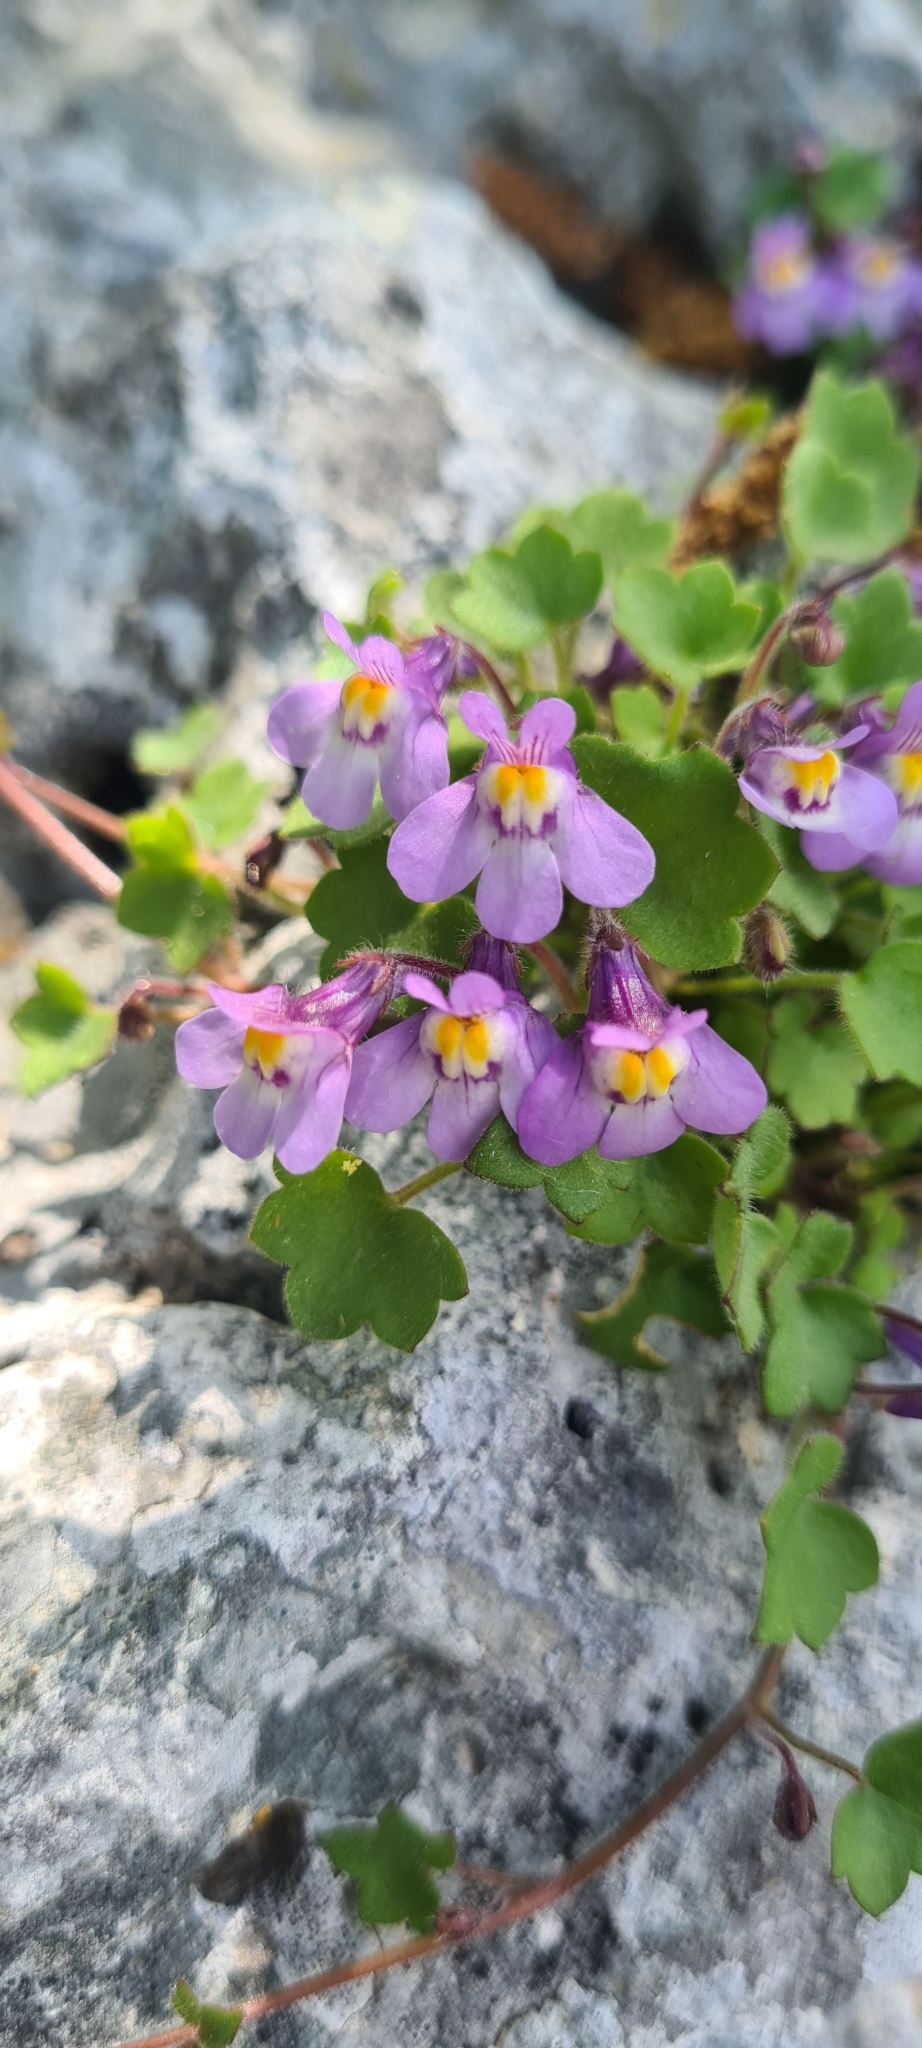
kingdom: Plantae
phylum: Tracheophyta
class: Magnoliopsida
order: Lamiales
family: Plantaginaceae
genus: Cymbalaria
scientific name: Cymbalaria muralis
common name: Ivy-leaved toadflax
